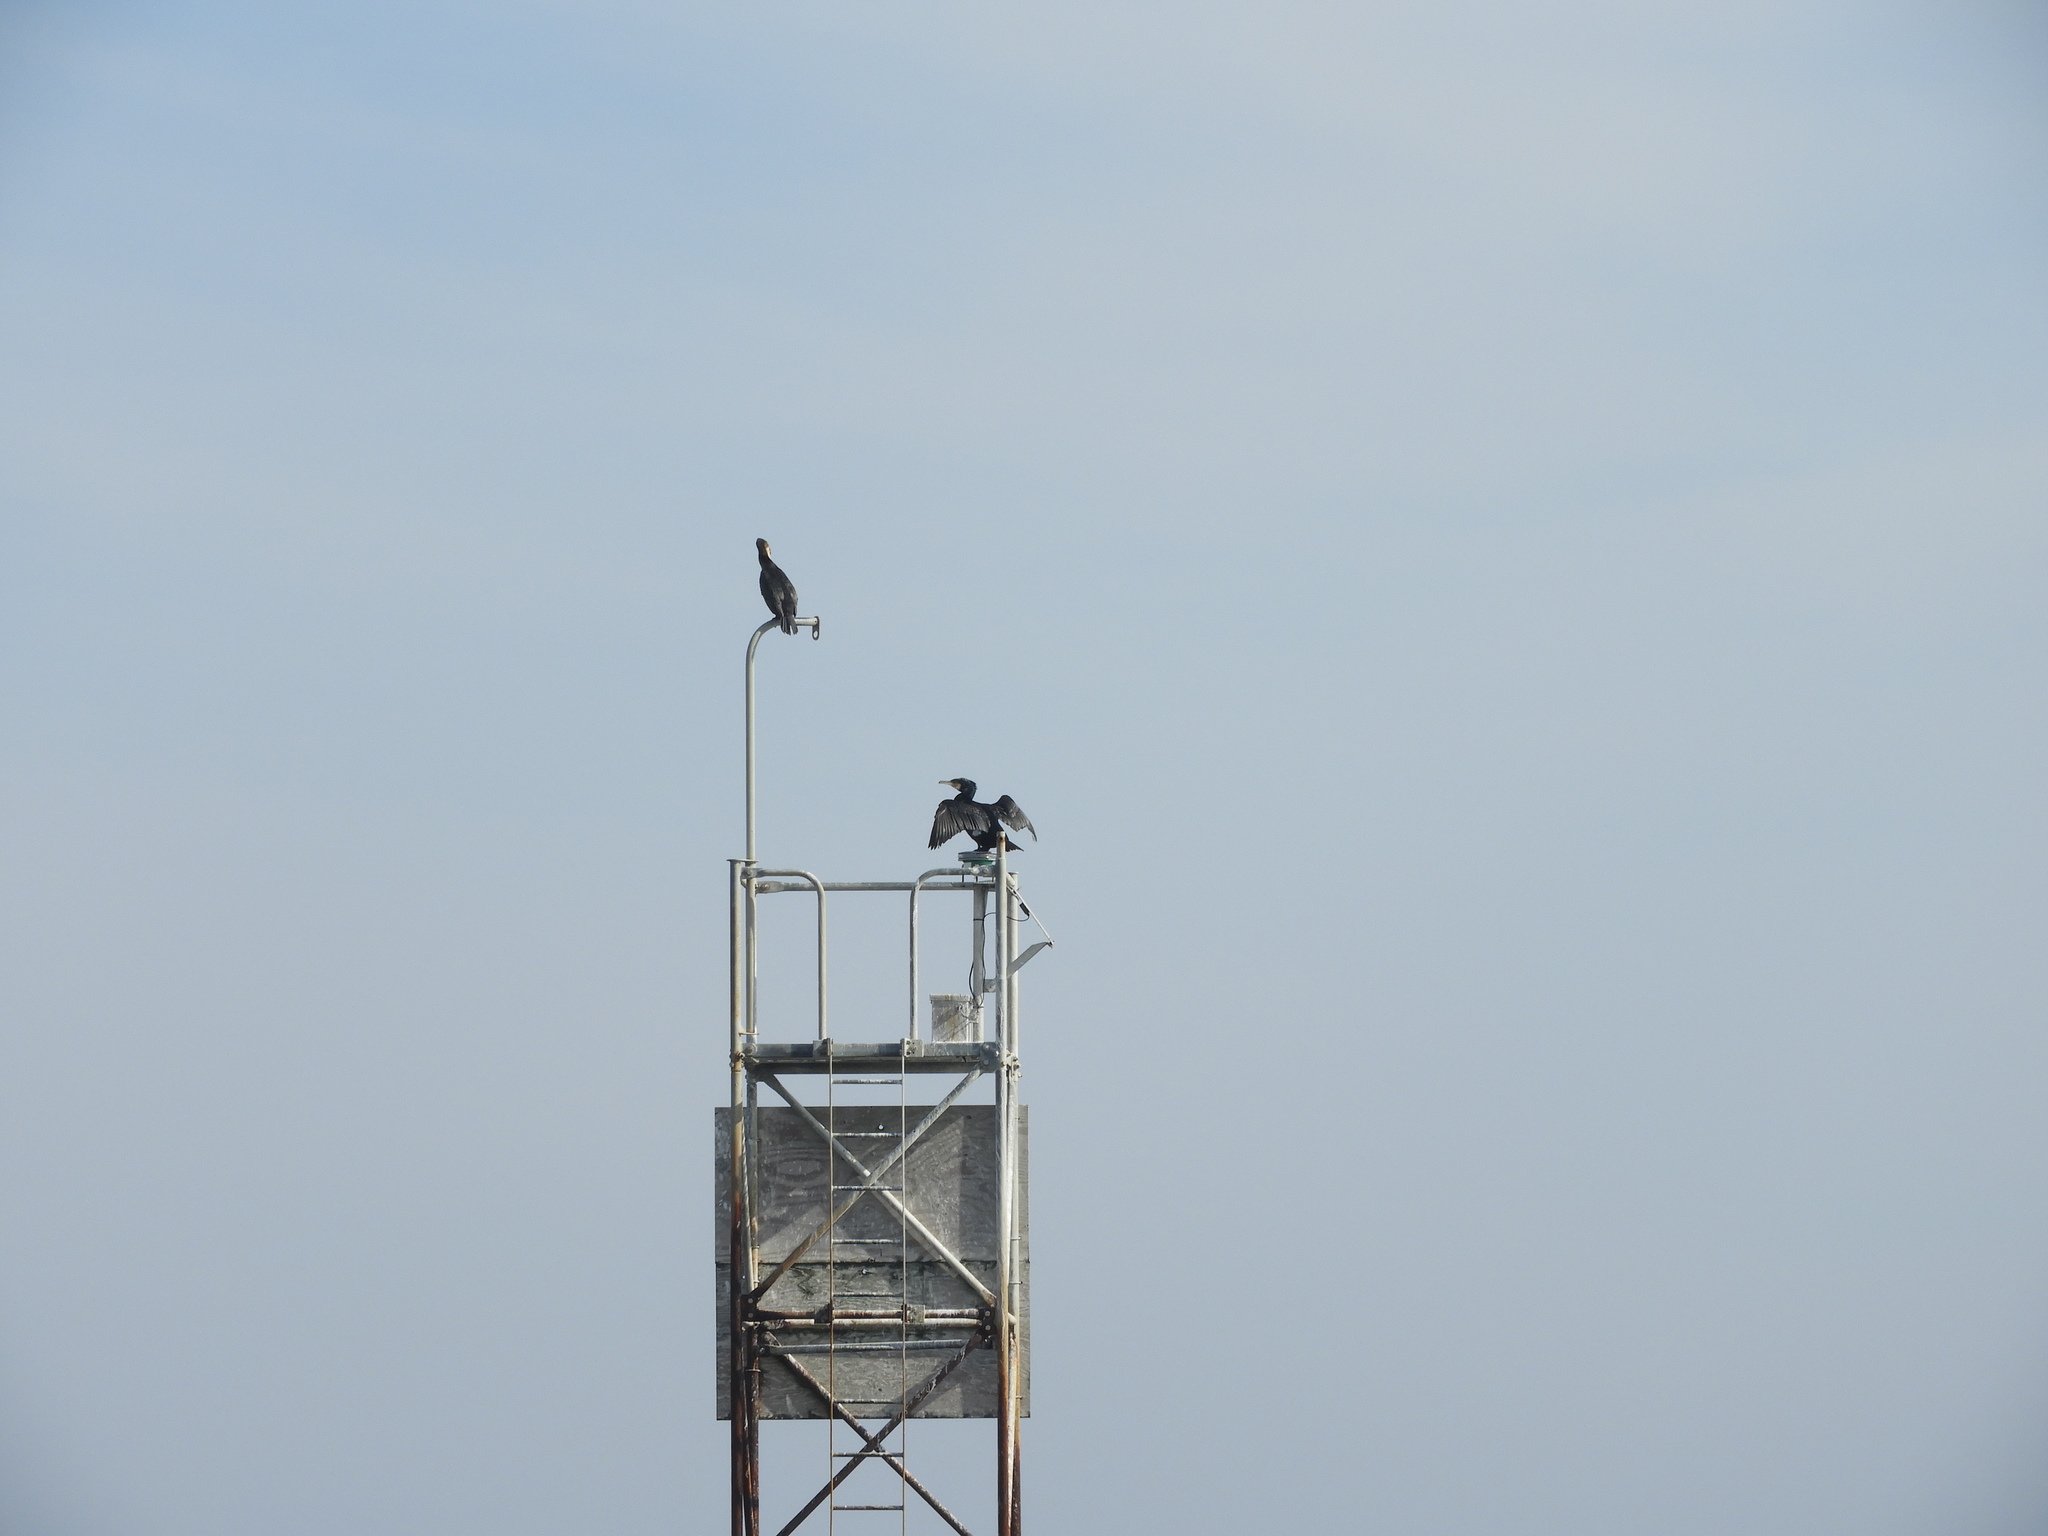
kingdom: Animalia
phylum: Chordata
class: Aves
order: Suliformes
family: Phalacrocoracidae
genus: Phalacrocorax
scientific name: Phalacrocorax carbo
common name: Great cormorant
